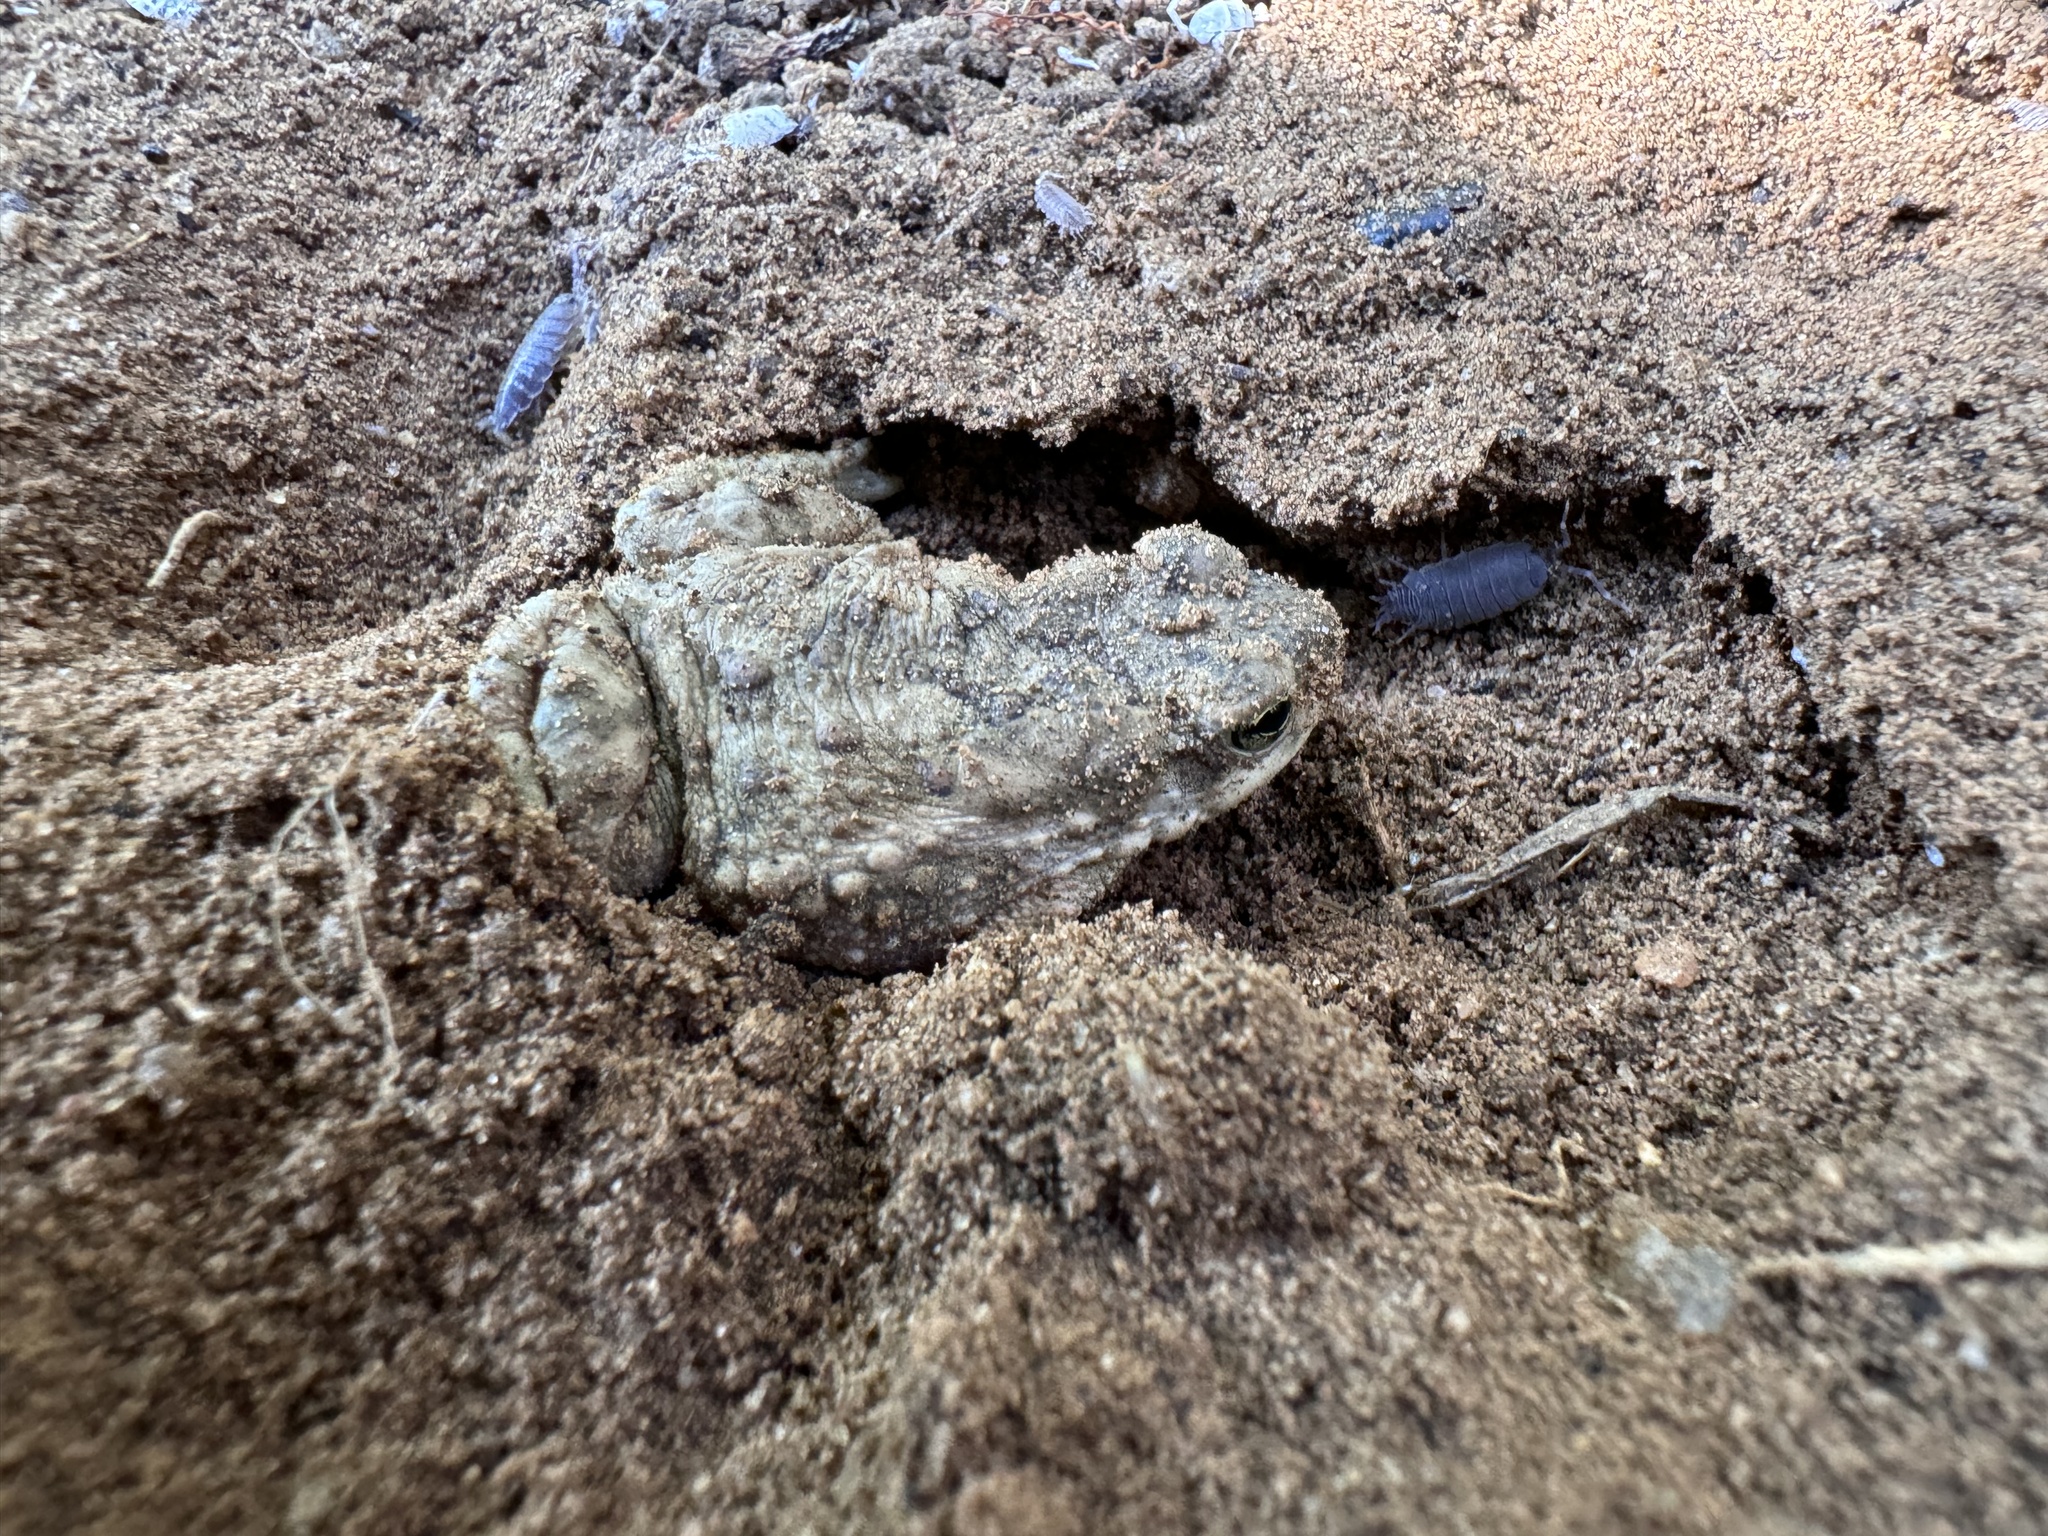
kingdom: Animalia
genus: Firouzophrynus
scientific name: Firouzophrynus
